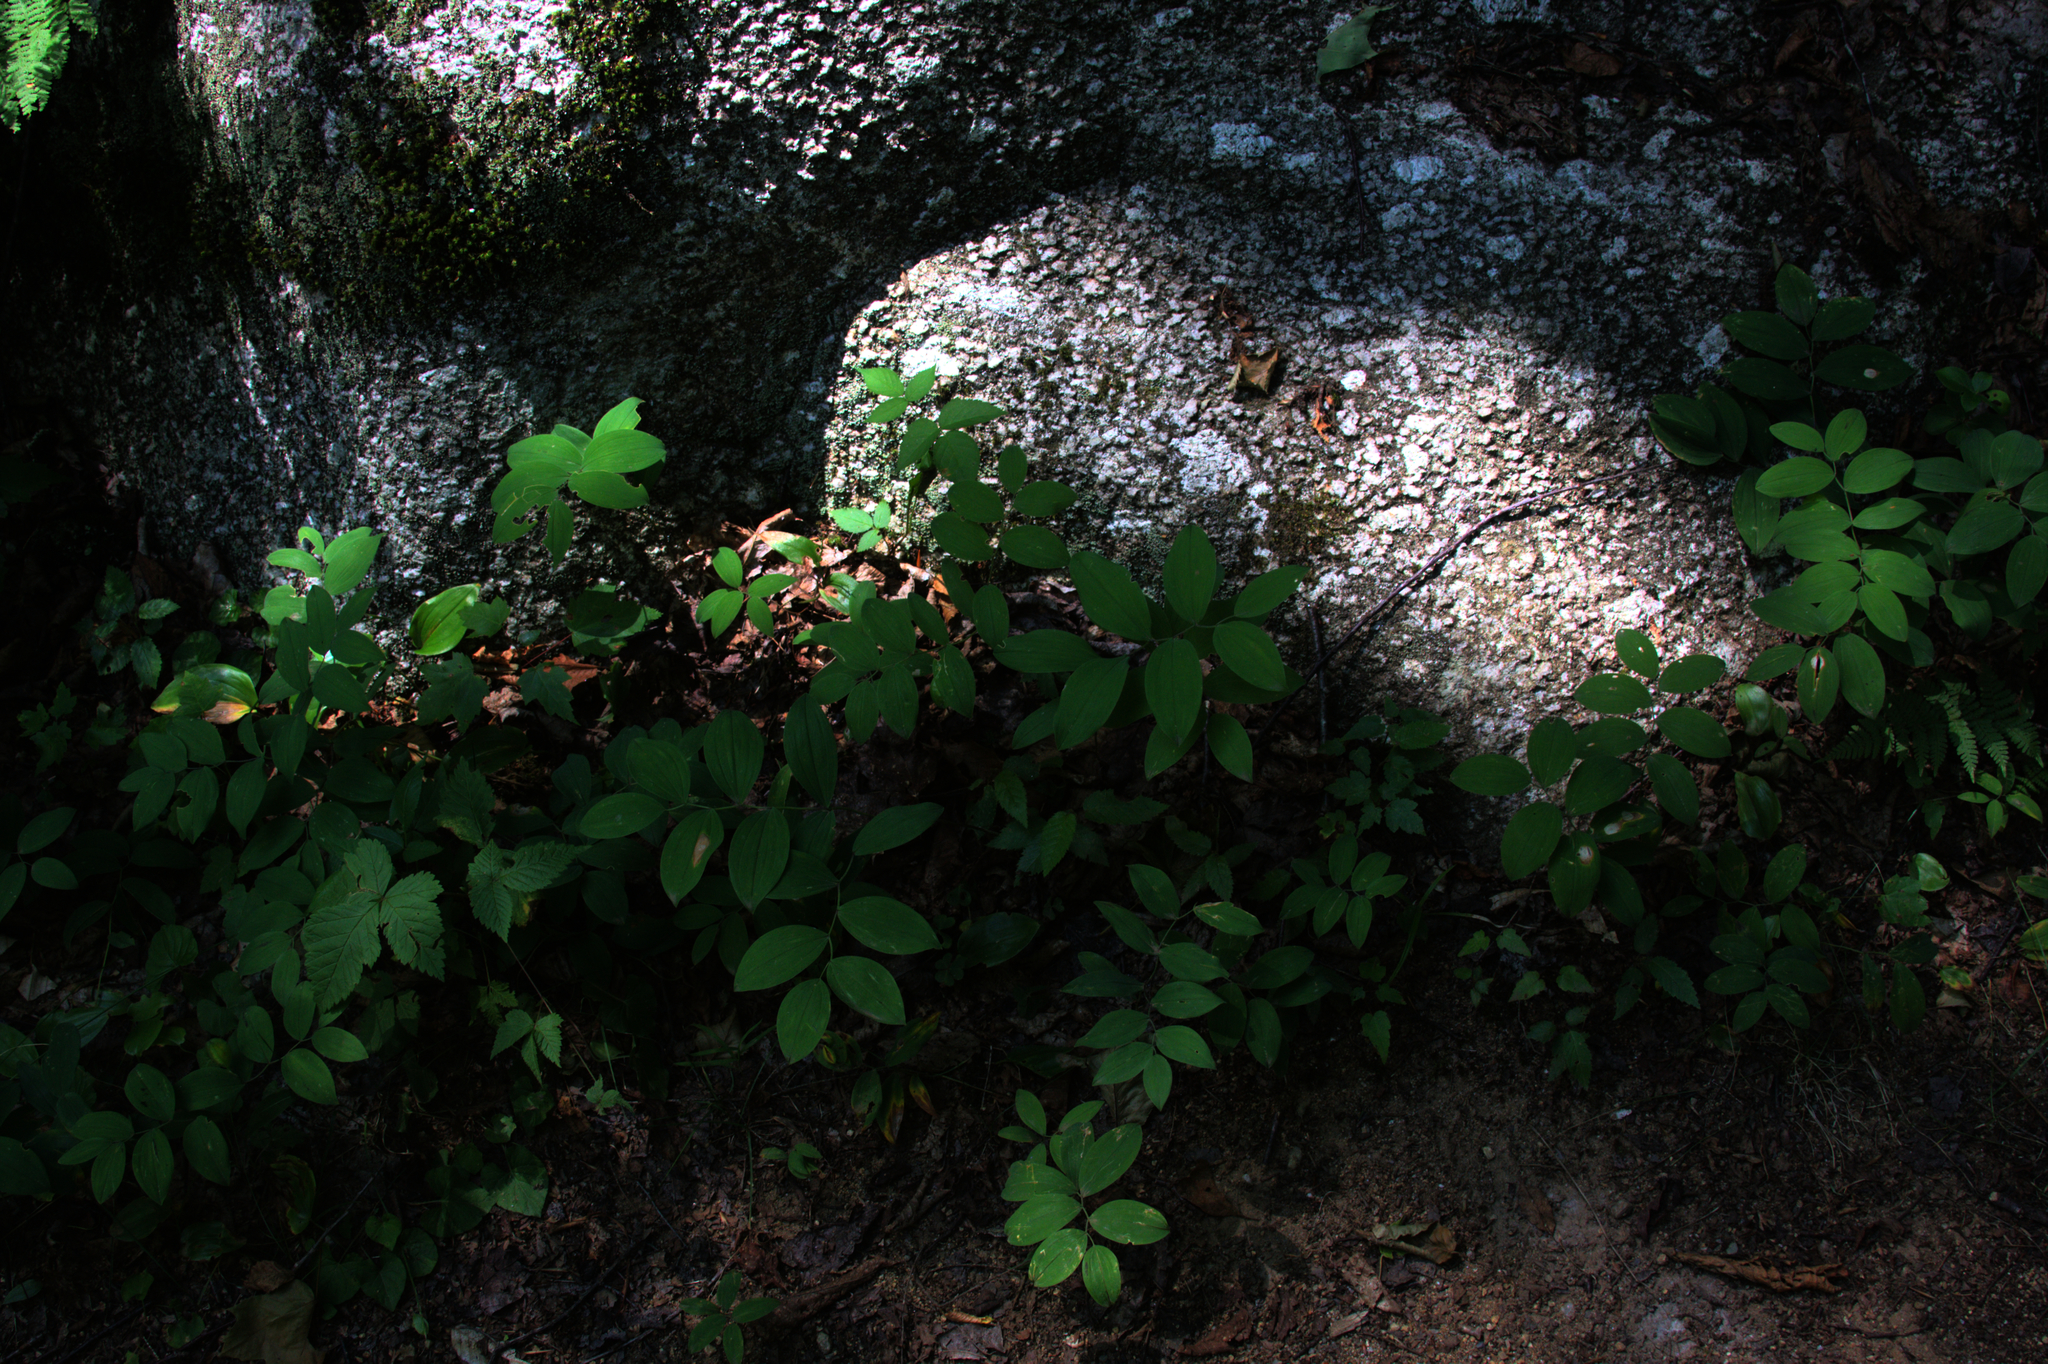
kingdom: Plantae
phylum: Tracheophyta
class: Liliopsida
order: Liliales
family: Colchicaceae
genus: Uvularia
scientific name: Uvularia sessilifolia
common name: Straw-lily
